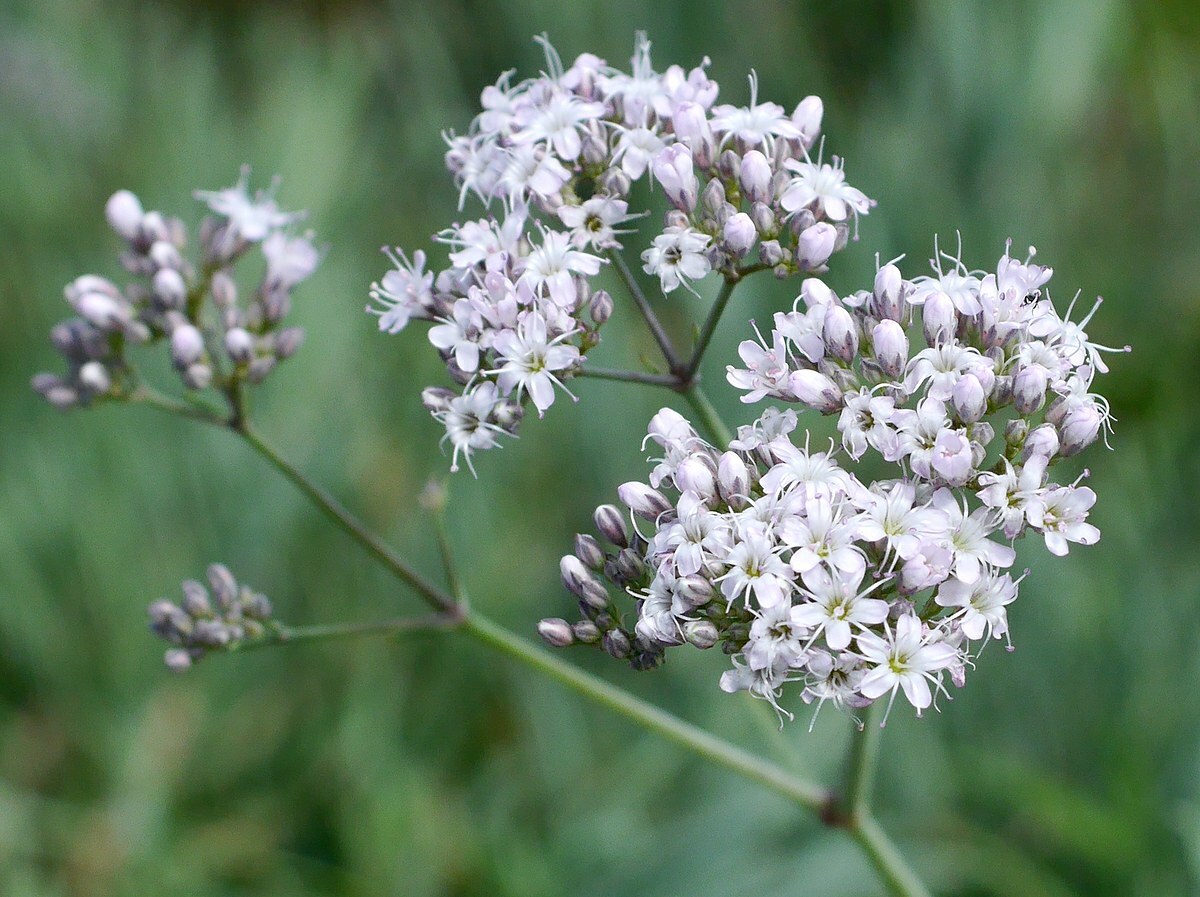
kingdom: Plantae
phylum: Tracheophyta
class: Magnoliopsida
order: Caryophyllales
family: Caryophyllaceae
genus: Gypsophila
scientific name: Gypsophila collina
